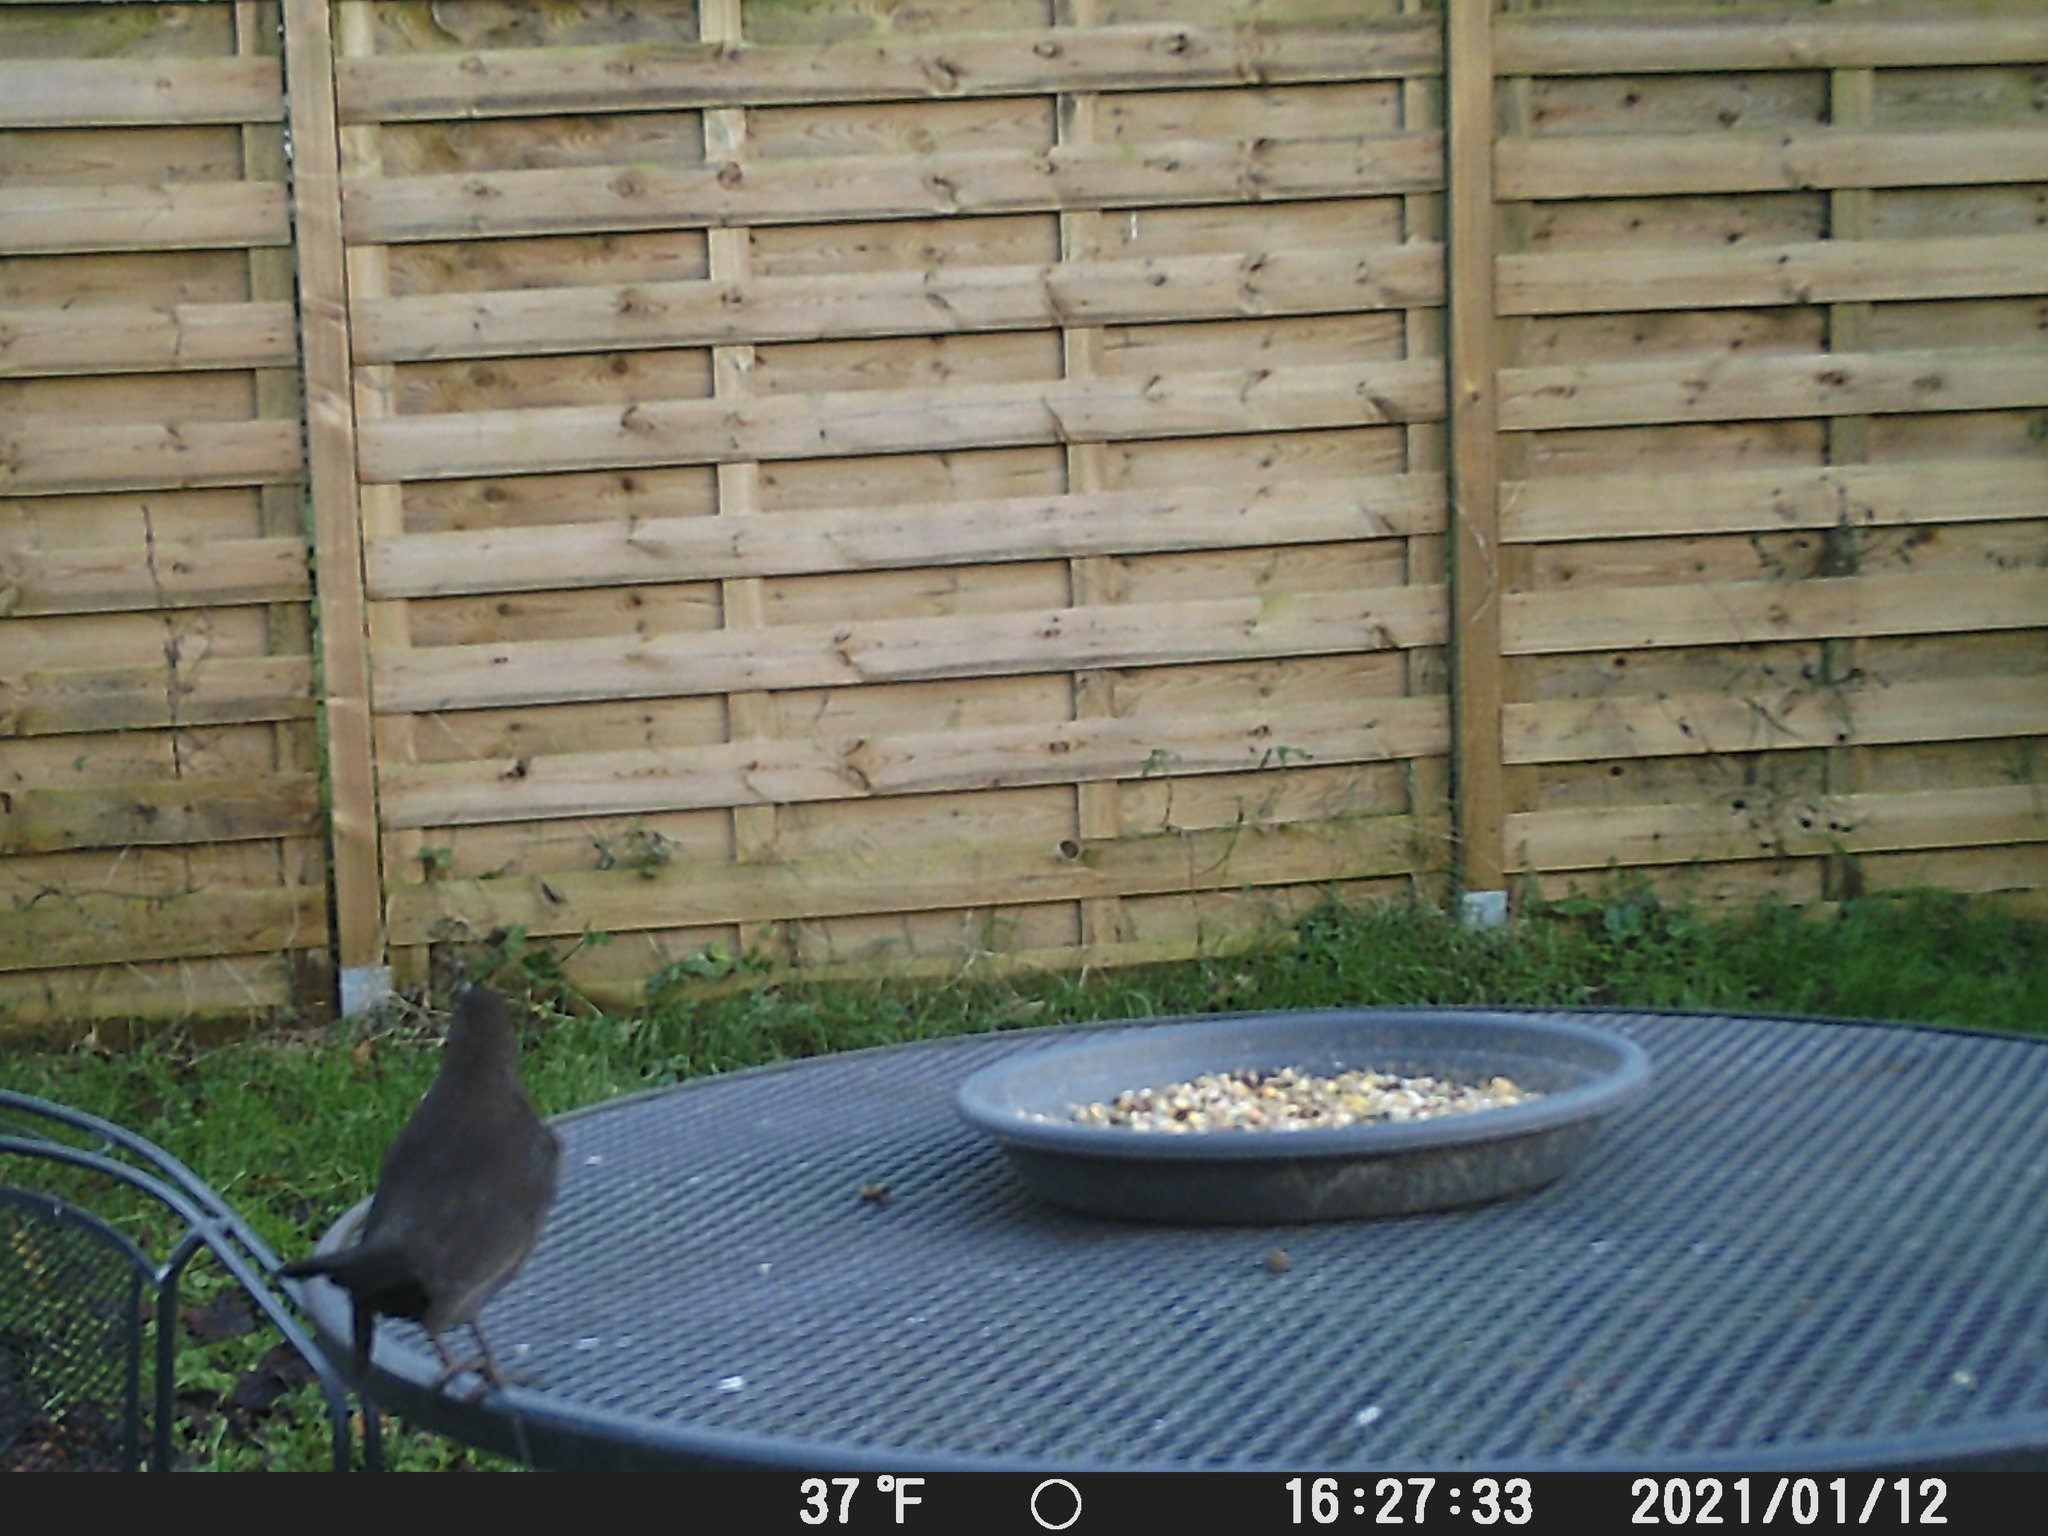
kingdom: Animalia
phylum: Chordata
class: Aves
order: Passeriformes
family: Turdidae
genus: Turdus
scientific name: Turdus merula
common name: Common blackbird
